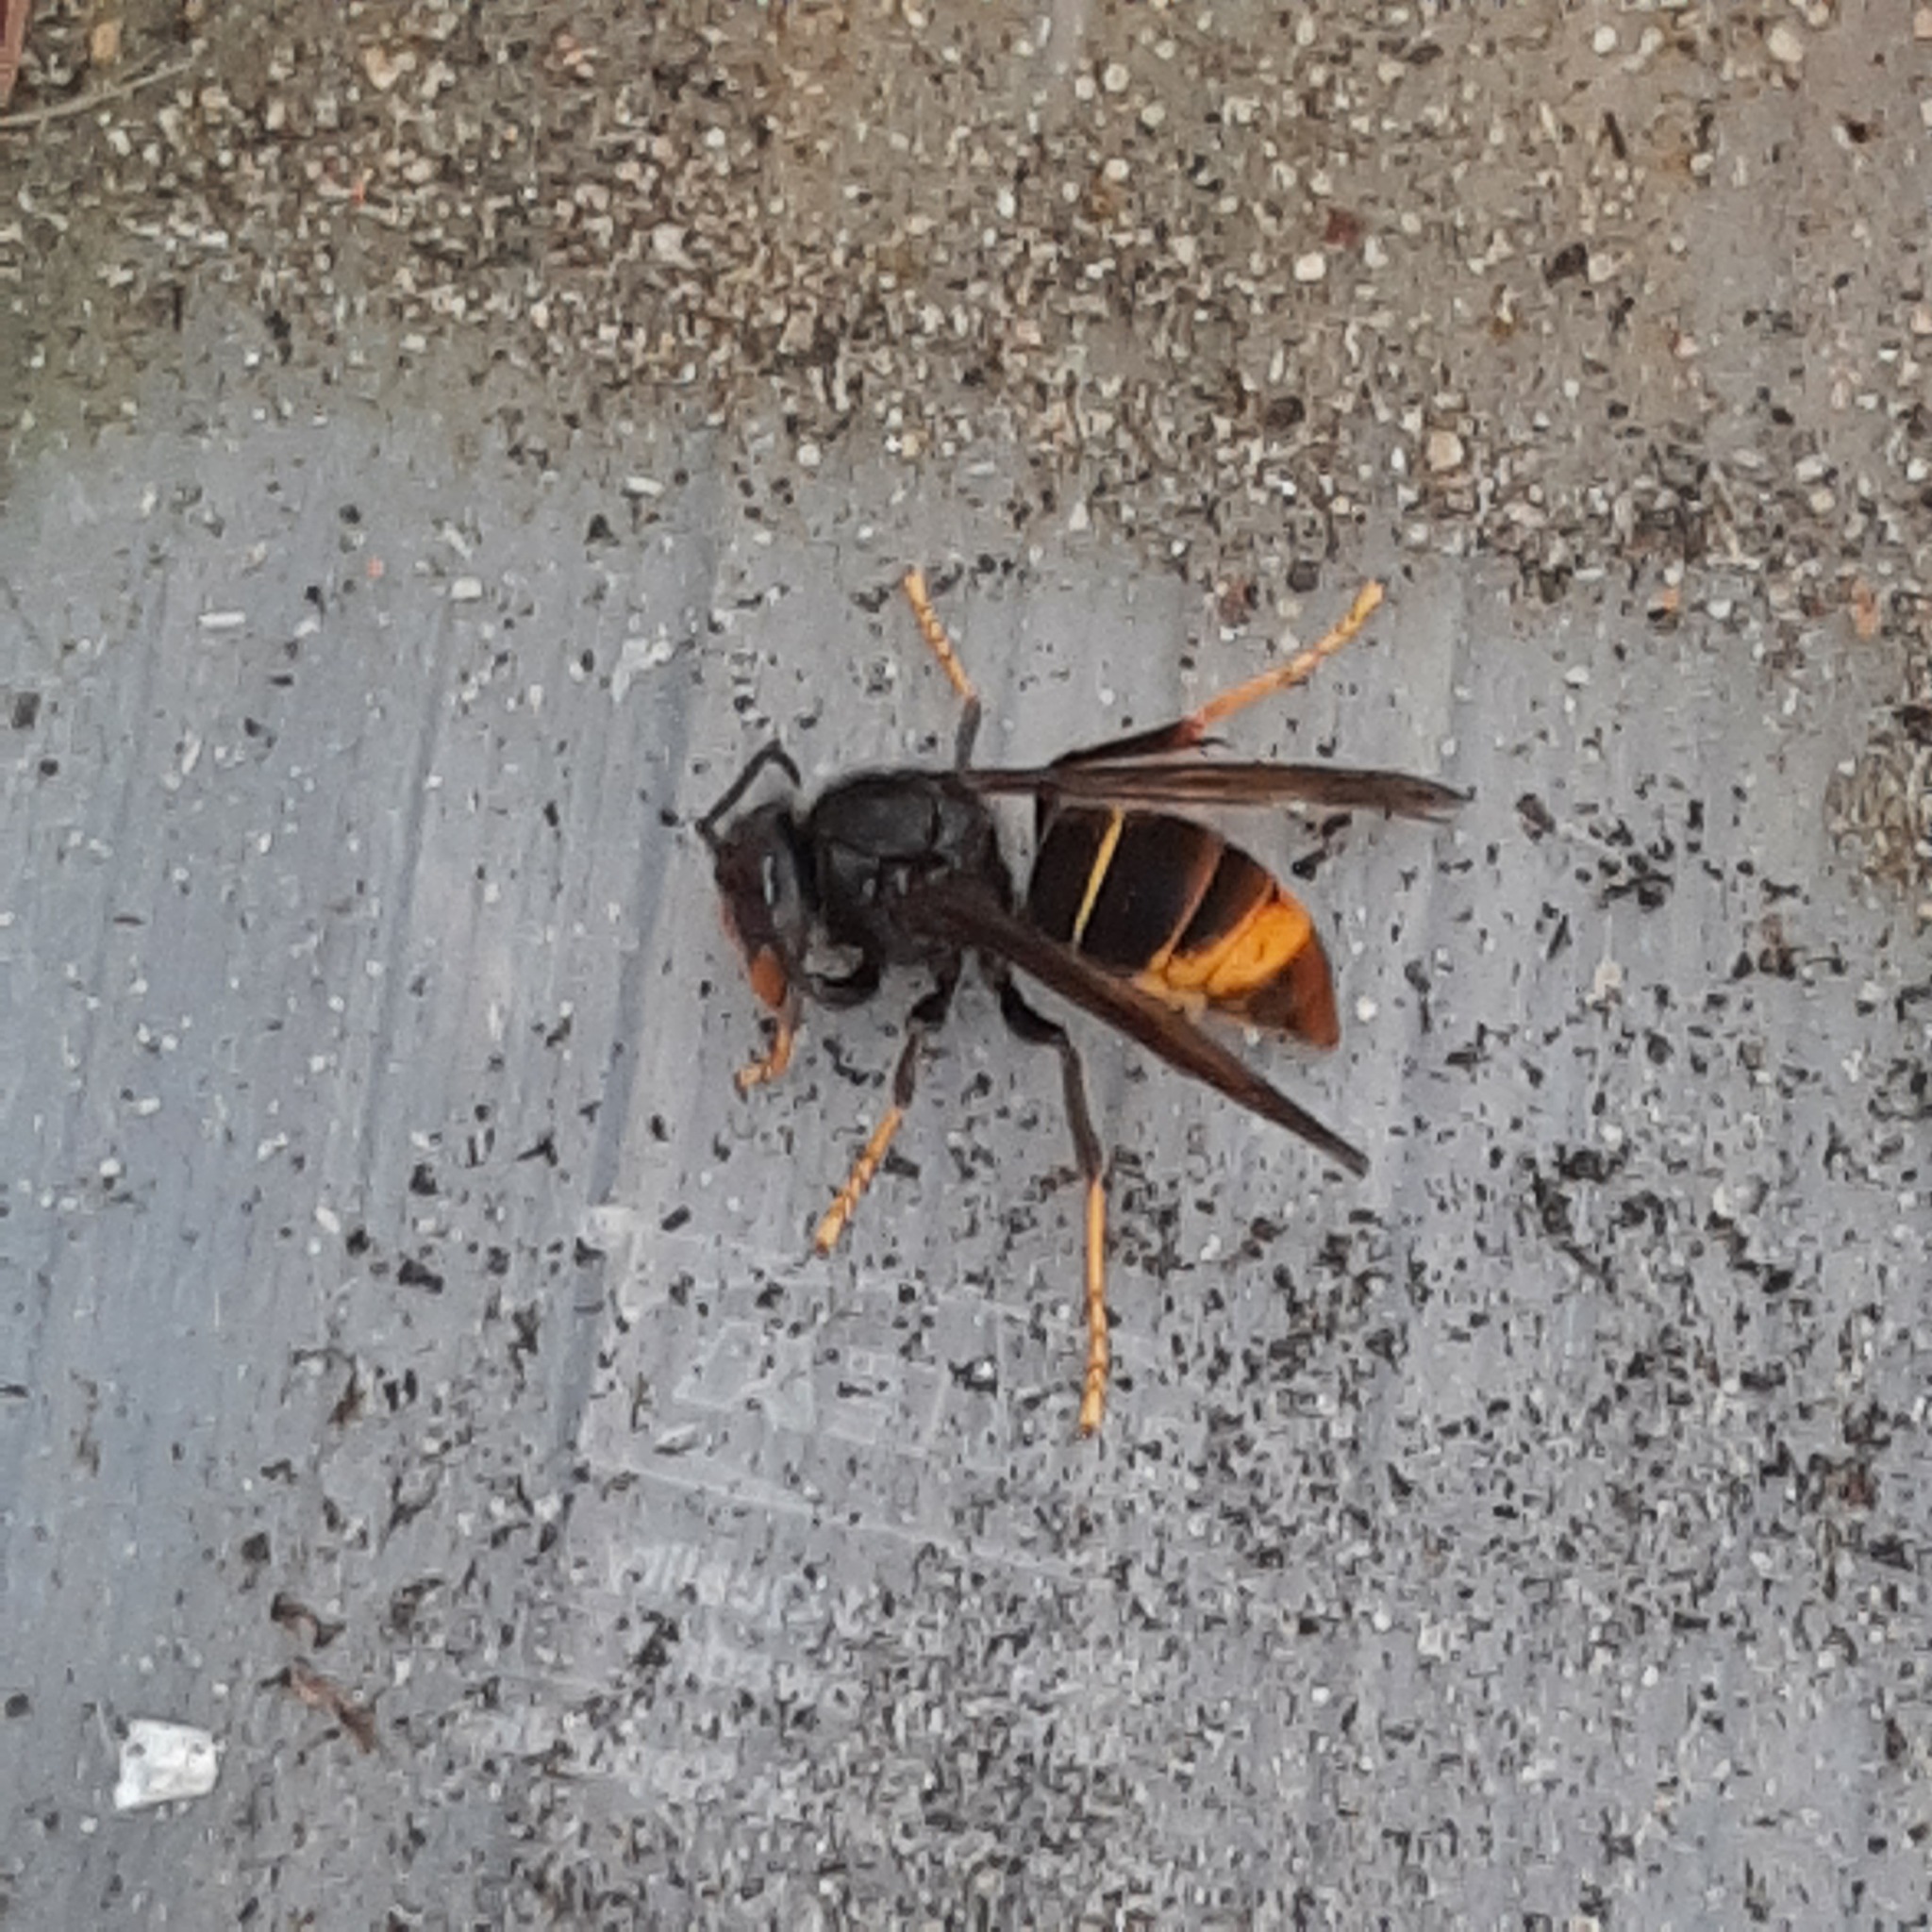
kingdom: Animalia
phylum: Arthropoda
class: Insecta
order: Hymenoptera
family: Vespidae
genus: Vespa
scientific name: Vespa velutina
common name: Asian hornet
